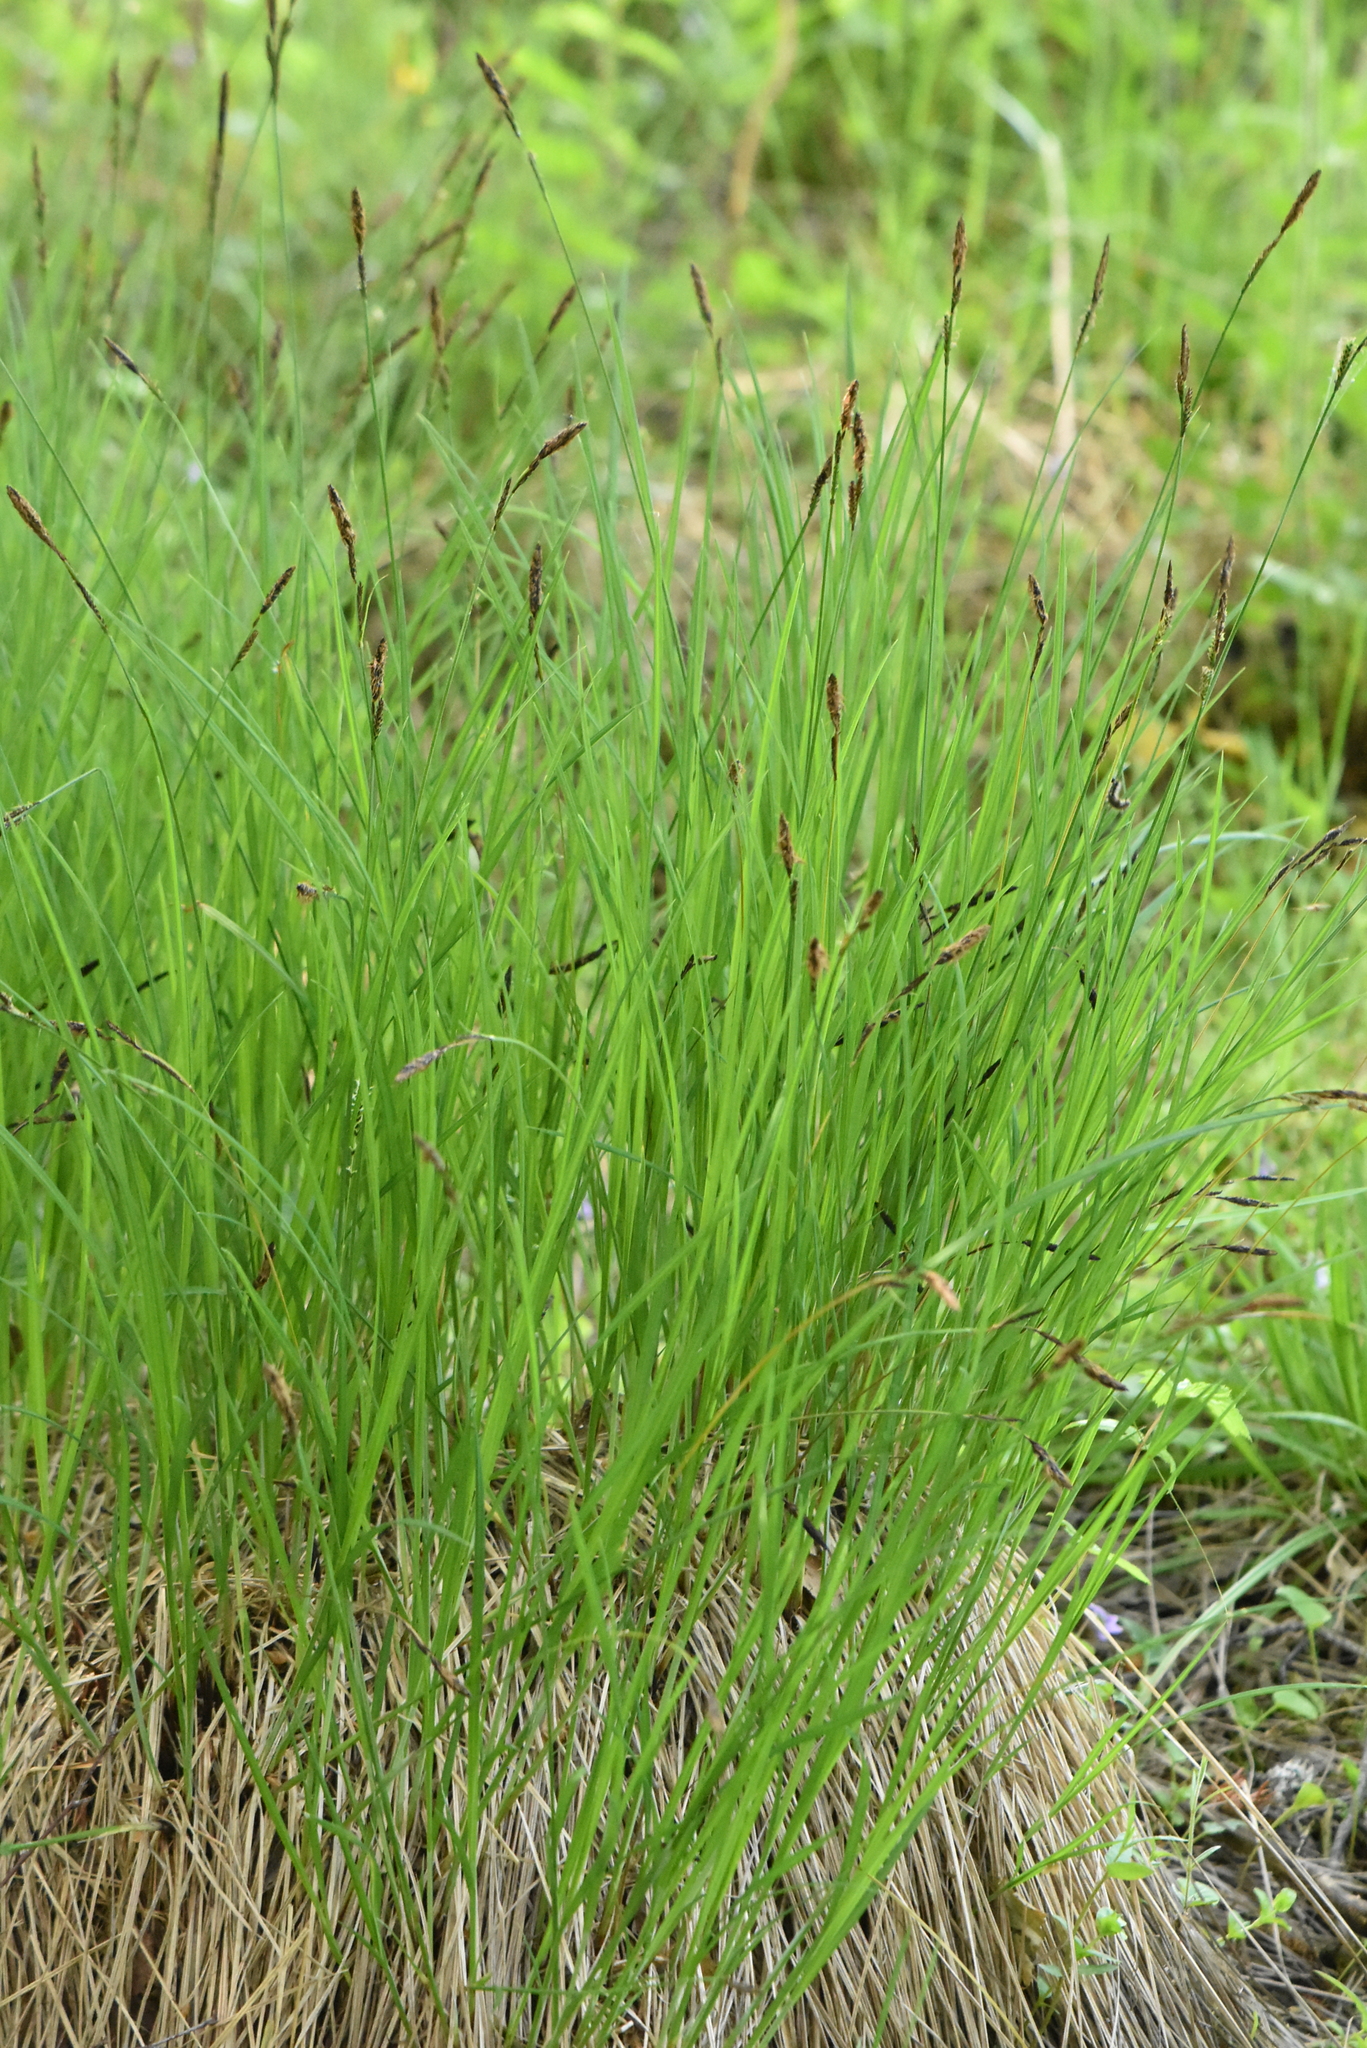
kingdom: Plantae
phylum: Tracheophyta
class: Liliopsida
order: Poales
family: Cyperaceae
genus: Carex
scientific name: Carex nigra
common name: Common sedge
